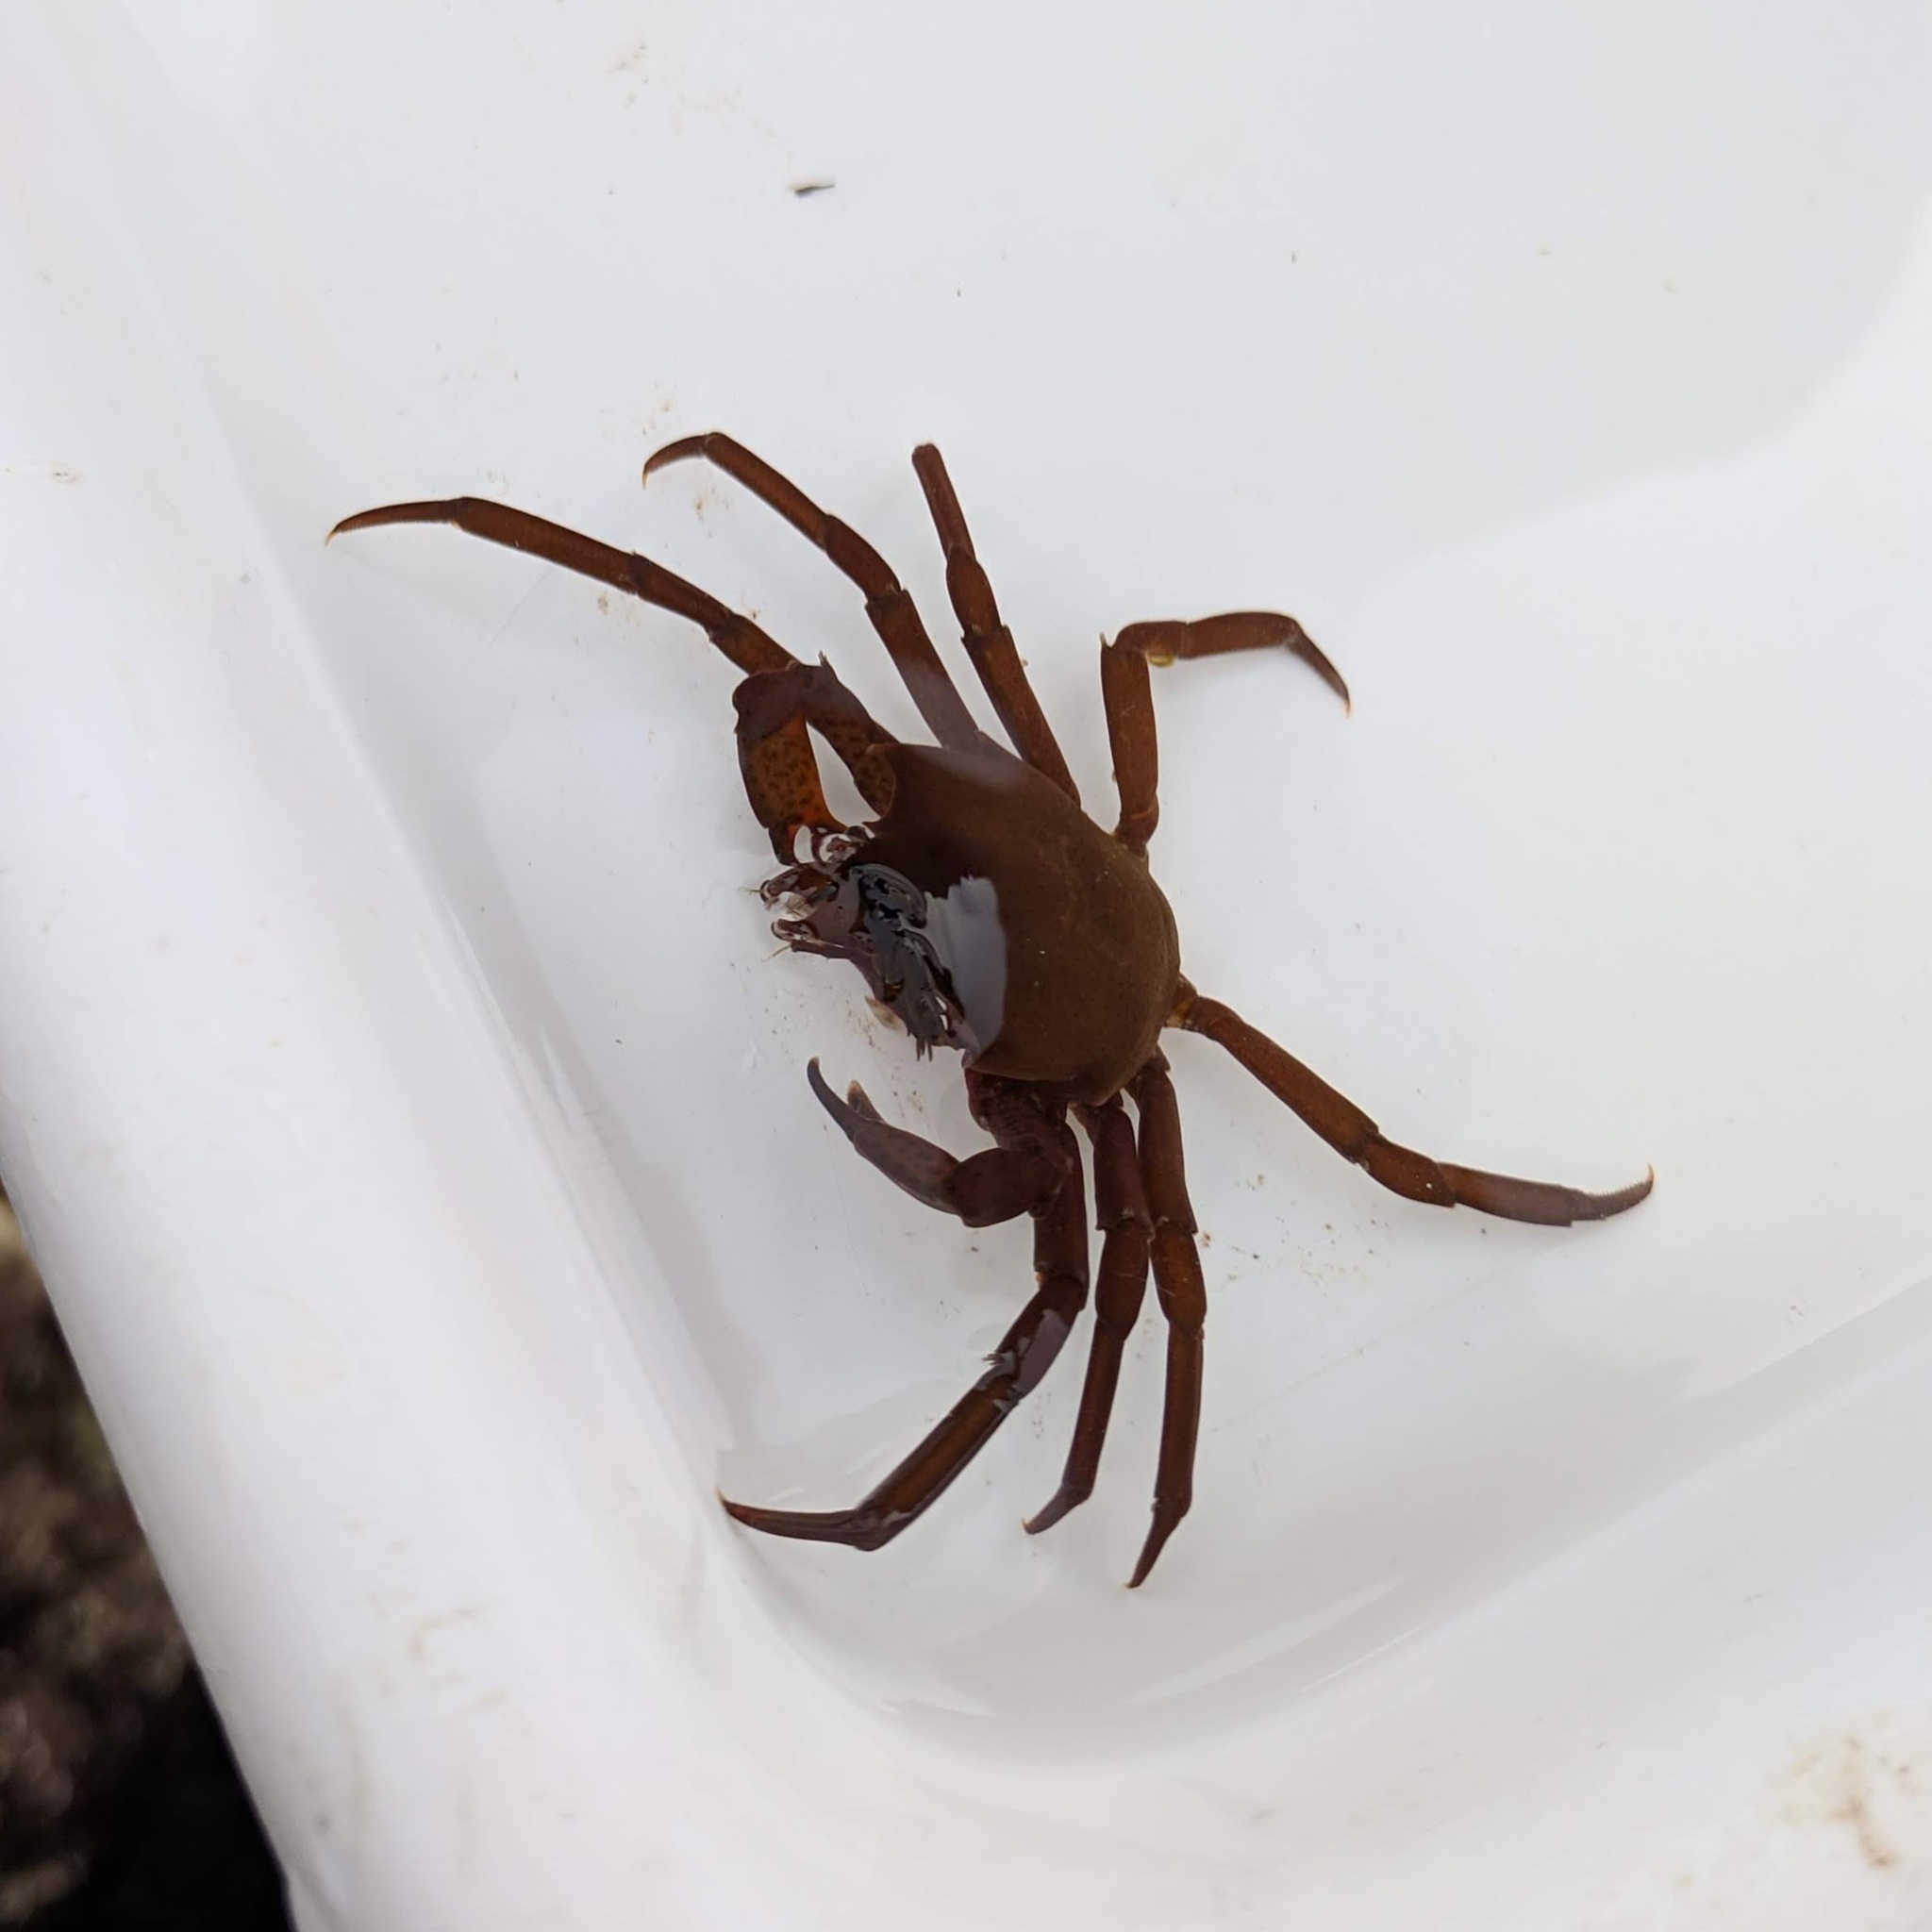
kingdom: Animalia
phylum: Arthropoda
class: Malacostraca
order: Decapoda
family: Epialtidae
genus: Pugettia
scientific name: Pugettia producta
